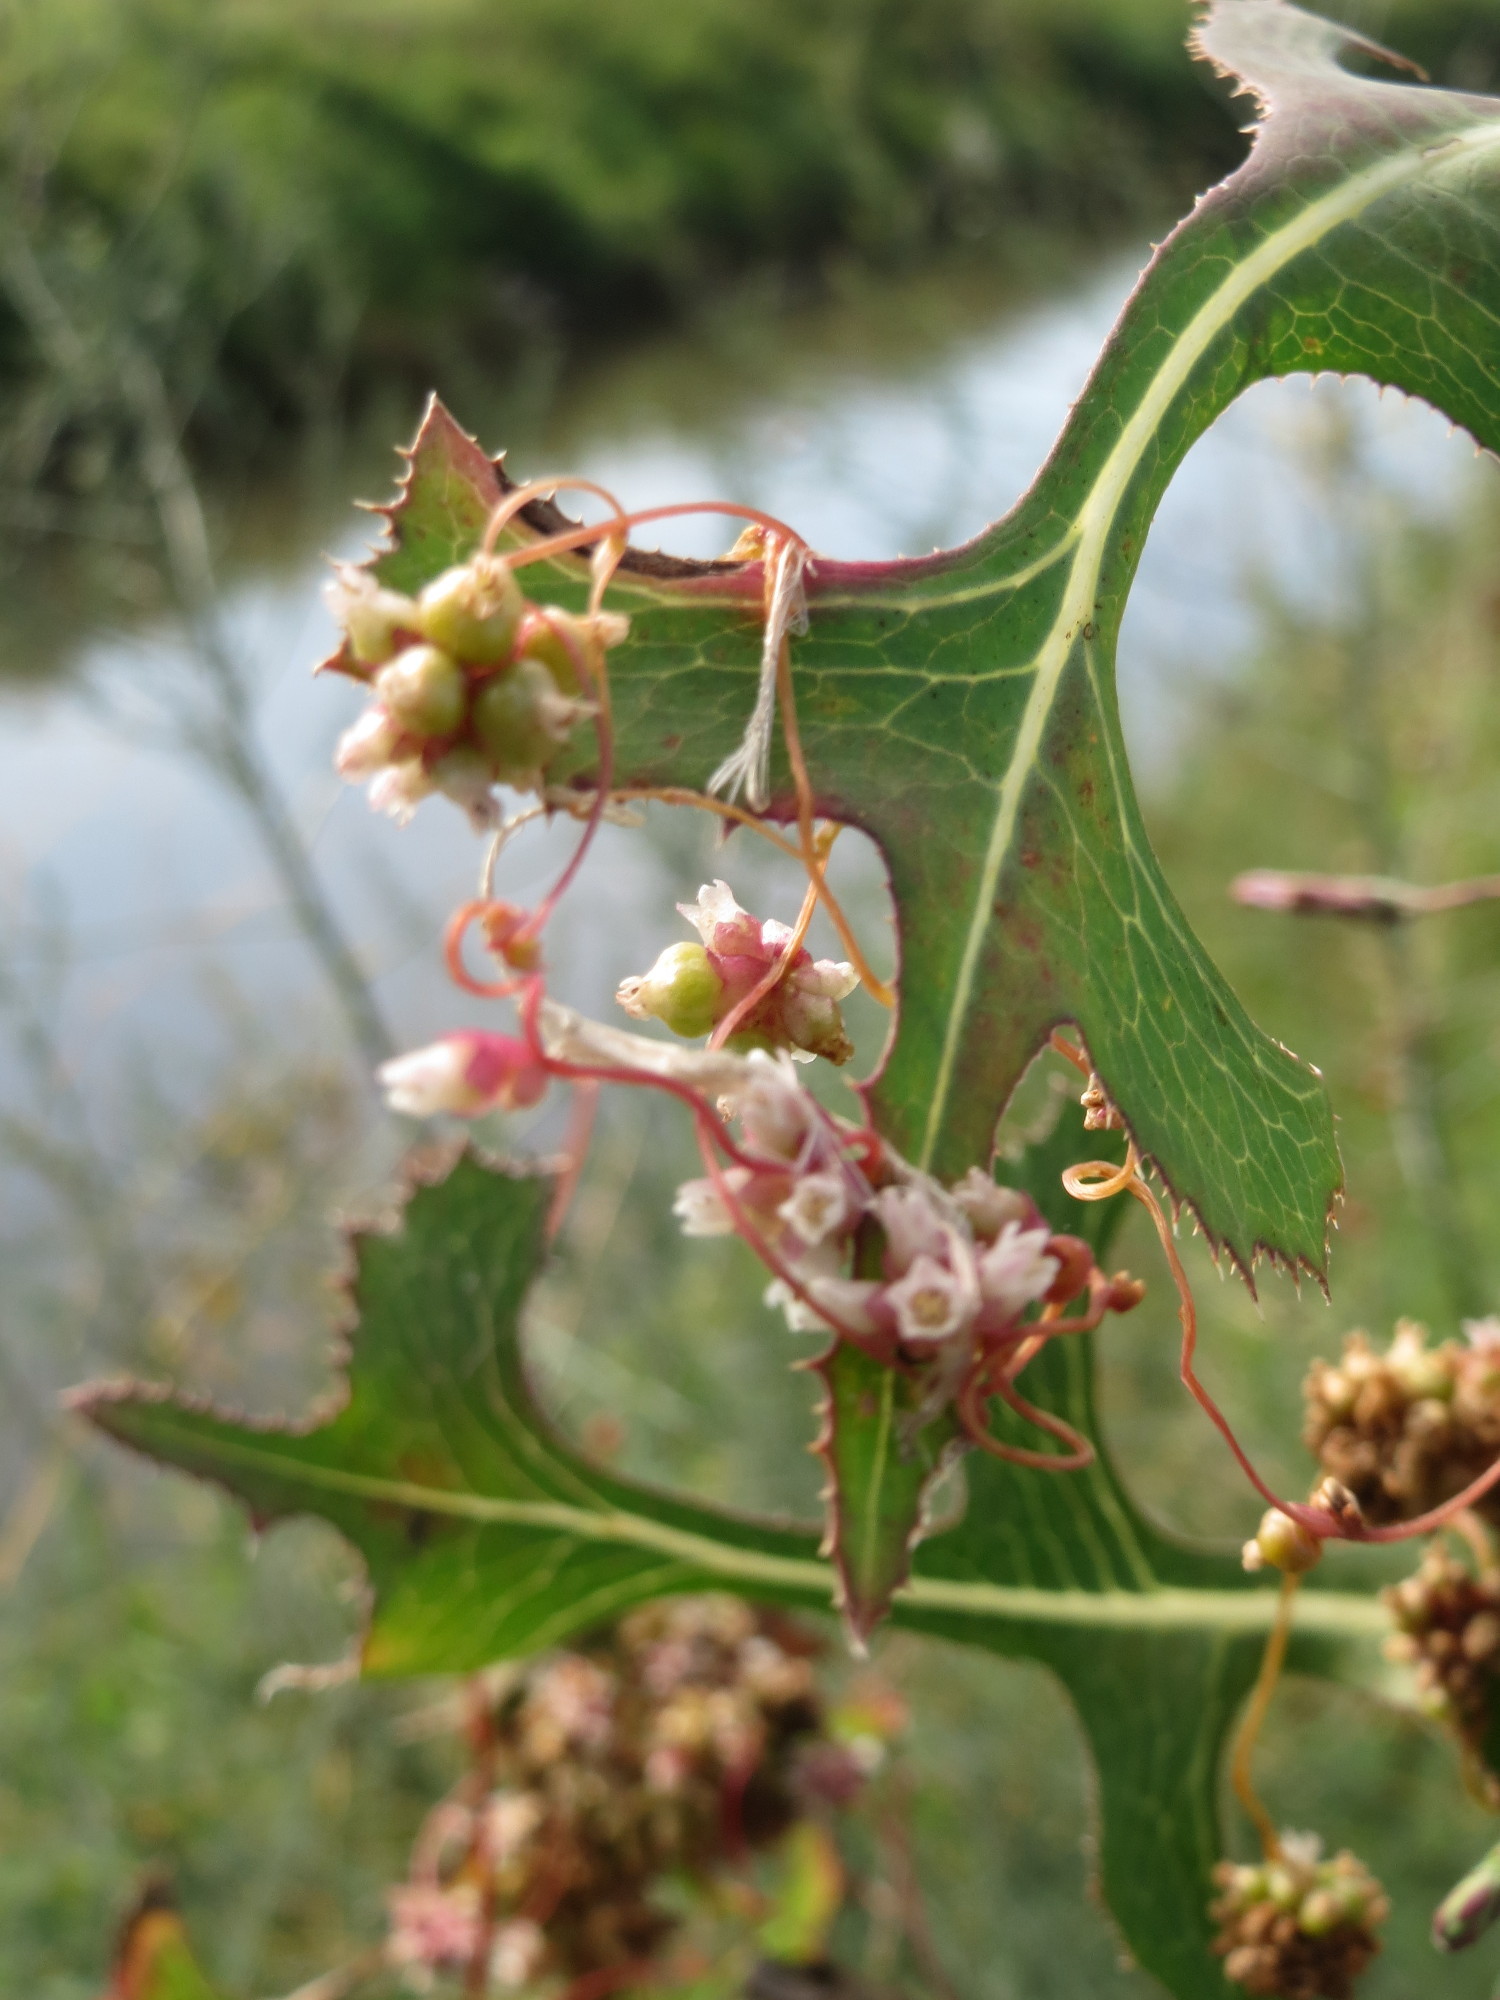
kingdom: Plantae
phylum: Tracheophyta
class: Magnoliopsida
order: Solanales
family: Convolvulaceae
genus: Cuscuta
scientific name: Cuscuta europaea
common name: Greater dodder
